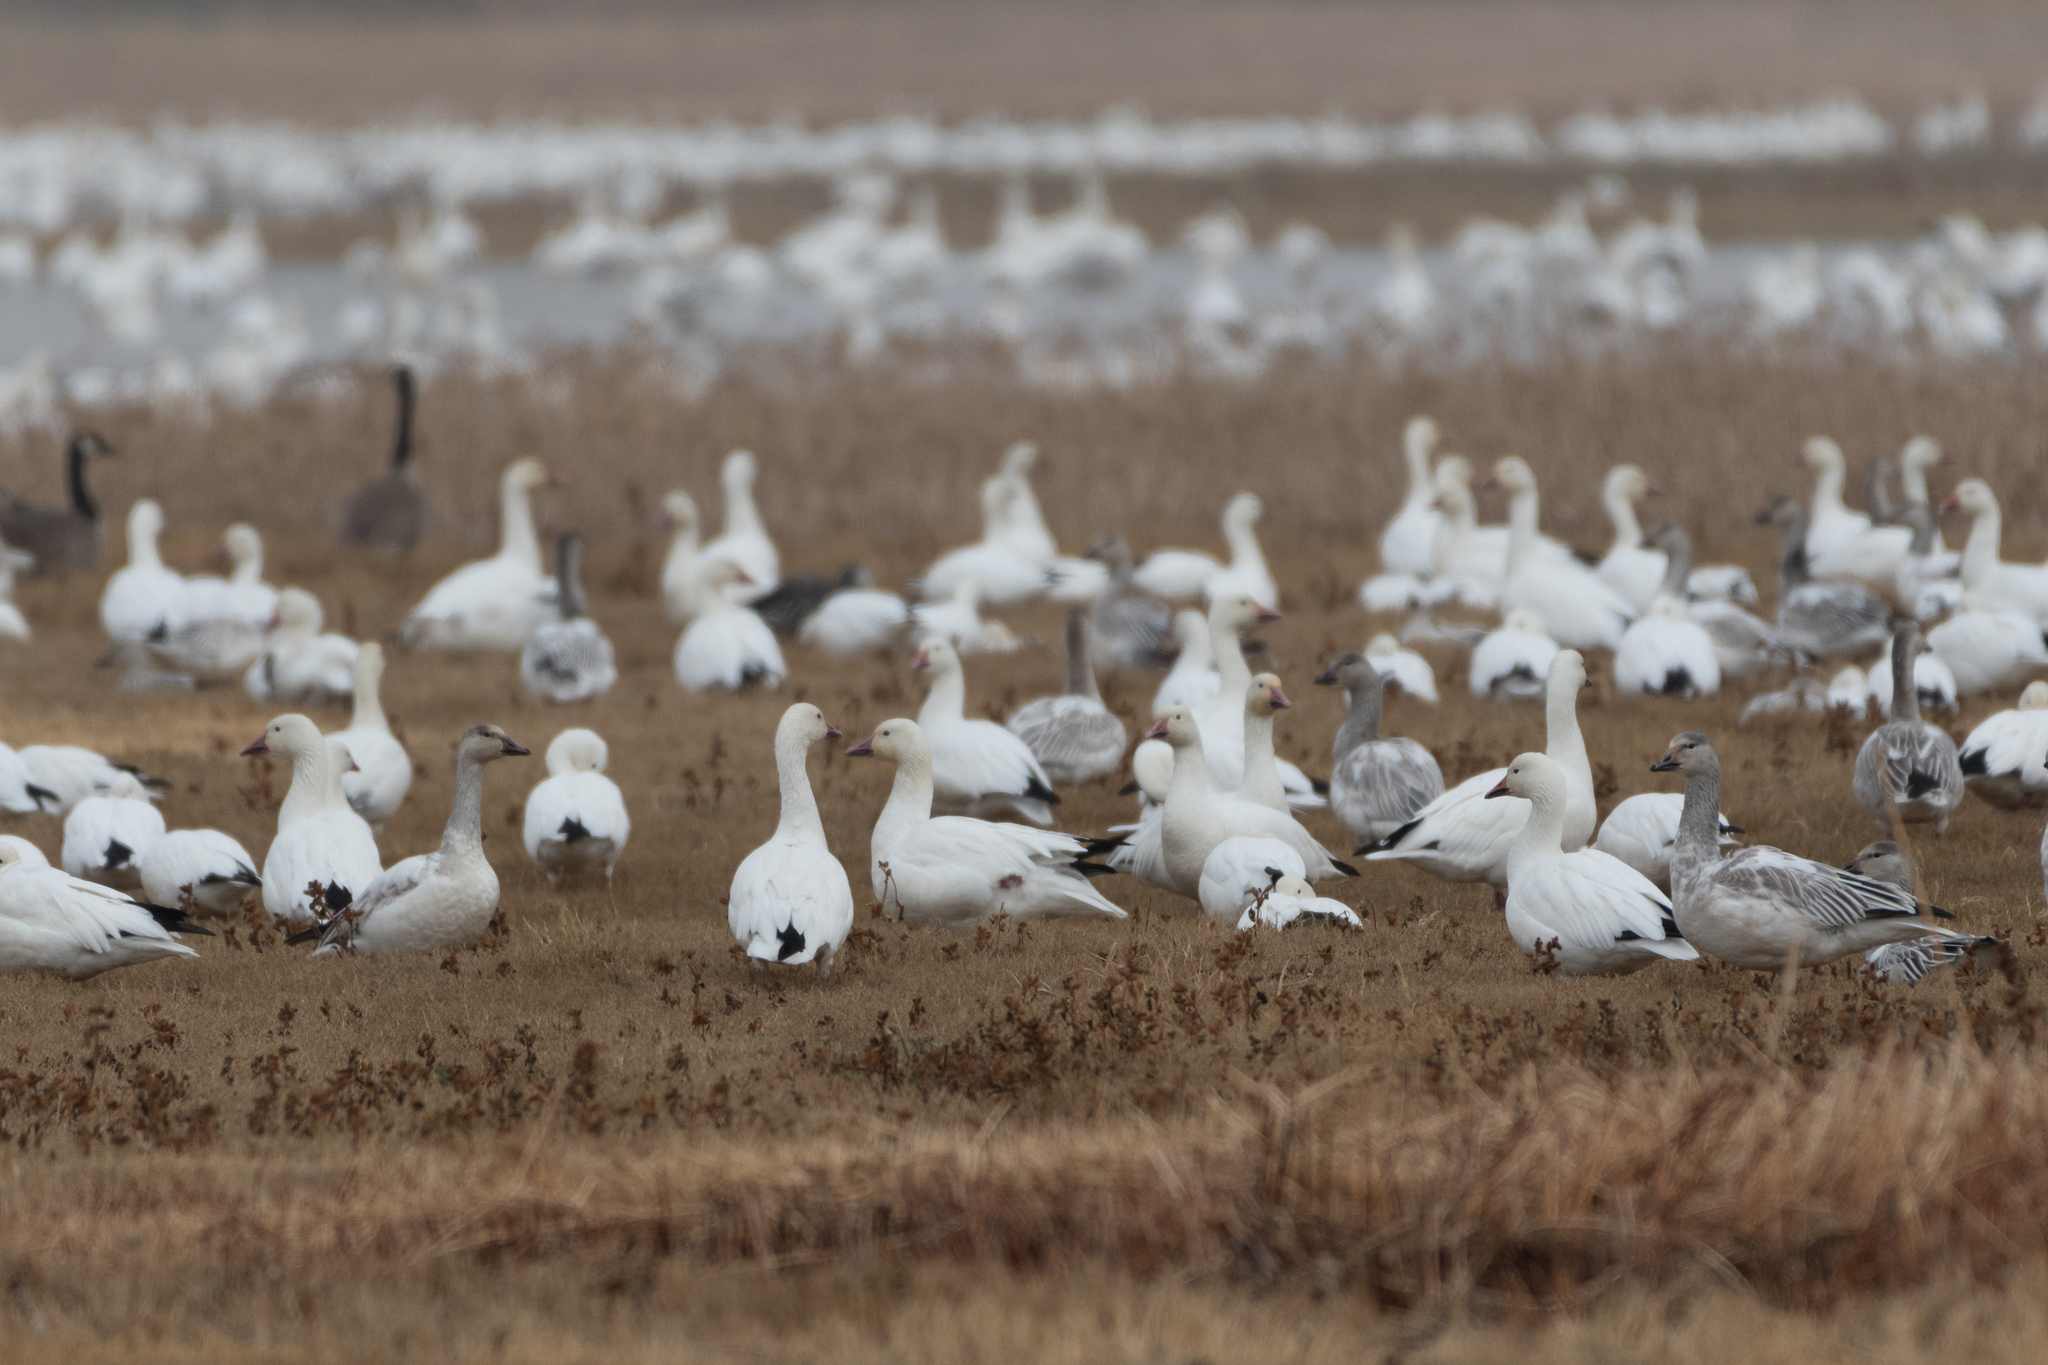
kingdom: Animalia
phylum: Chordata
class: Aves
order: Anseriformes
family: Anatidae
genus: Anser
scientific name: Anser caerulescens
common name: Snow goose
